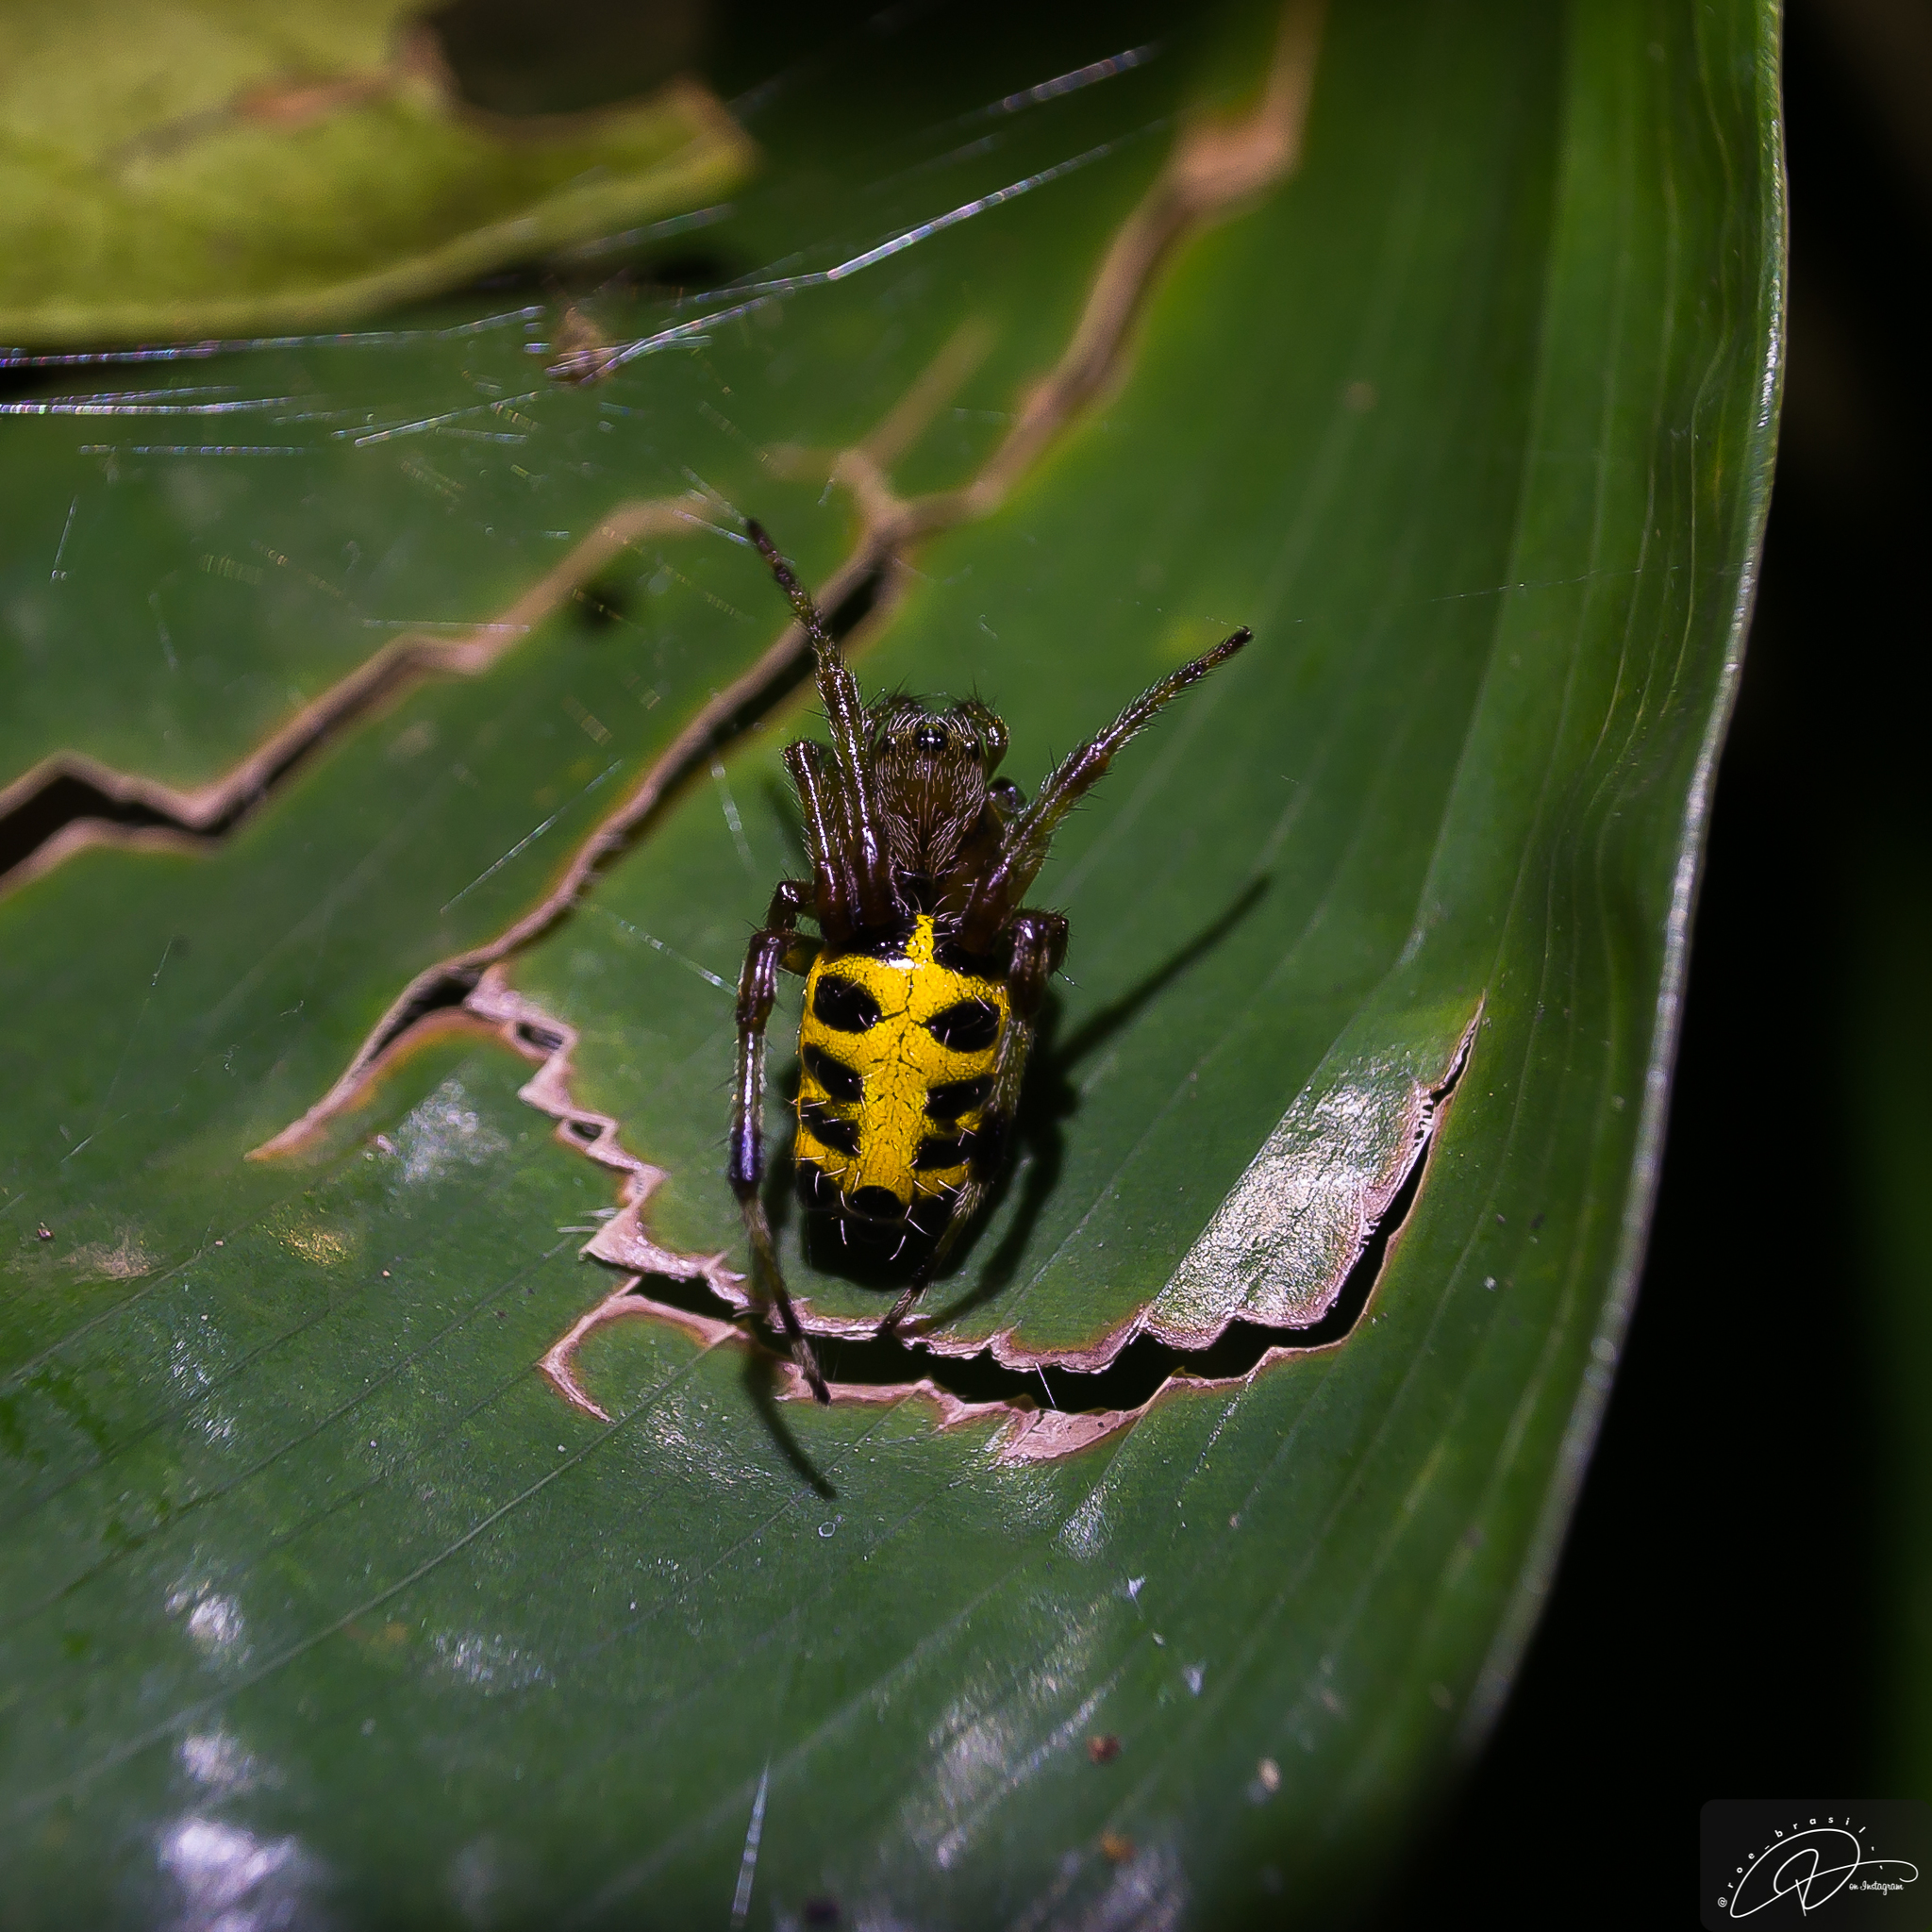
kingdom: Animalia
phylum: Arthropoda
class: Arachnida
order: Araneae
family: Araneidae
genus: Alpaida
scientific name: Alpaida truncata
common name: Orb weavers
